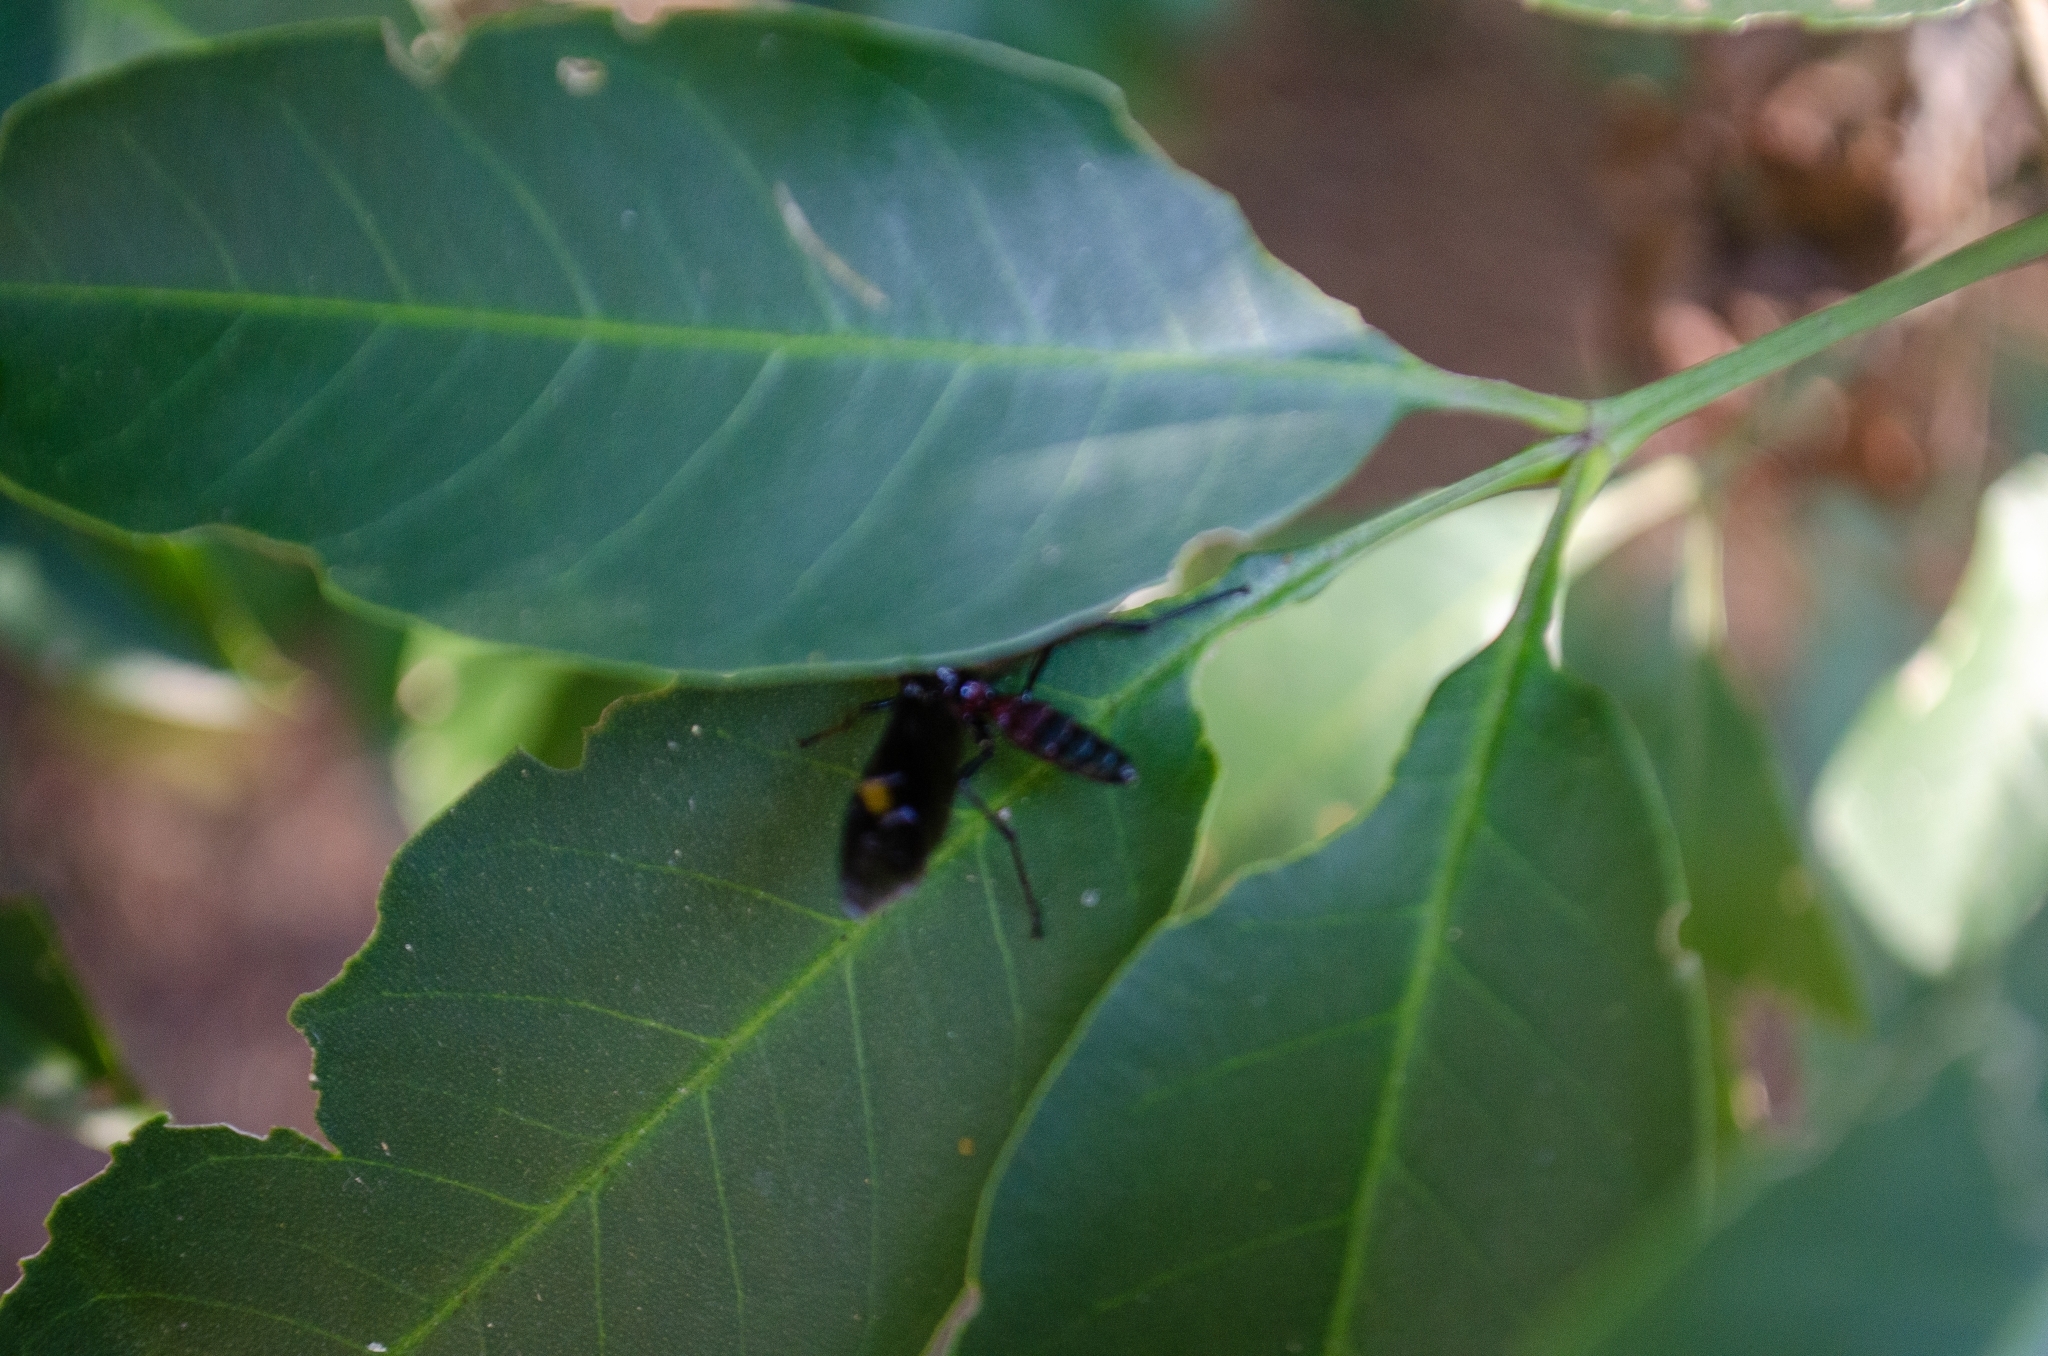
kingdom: Animalia
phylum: Arthropoda
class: Insecta
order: Hymenoptera
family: Ichneumonidae
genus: Pedinopelte
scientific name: Pedinopelte gravenstii
